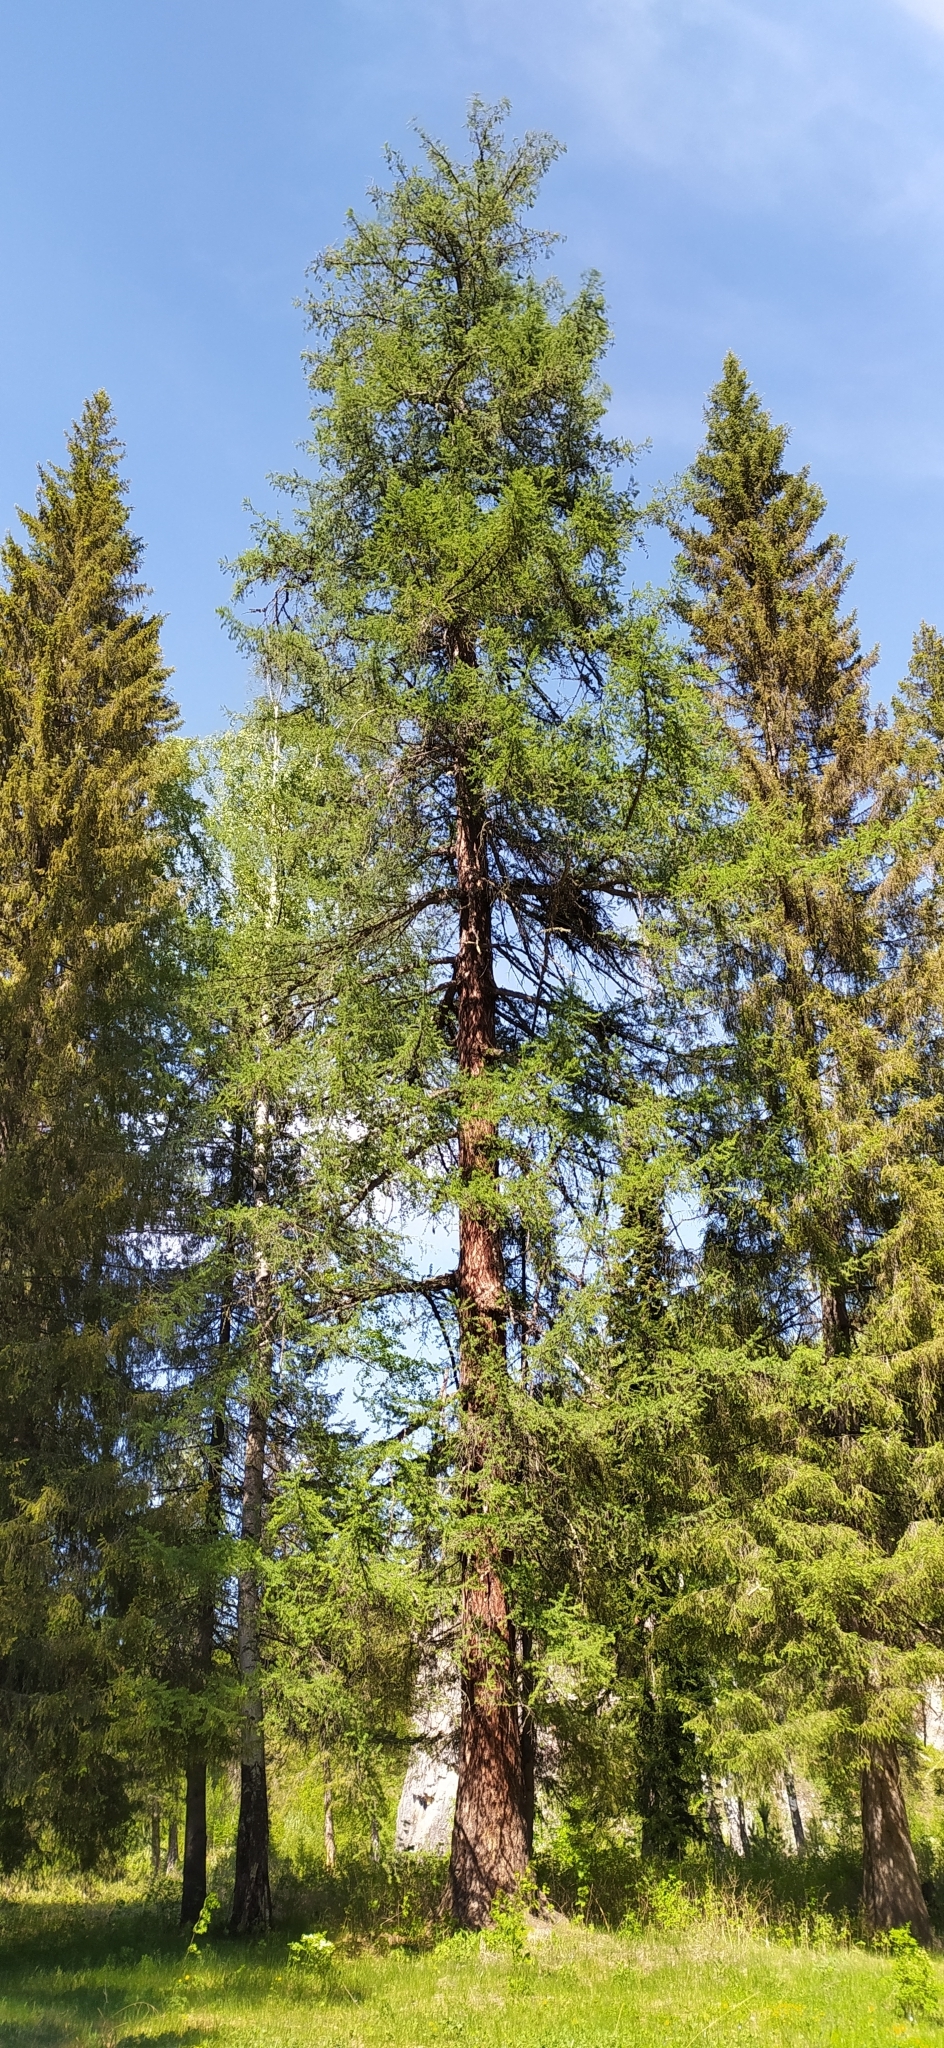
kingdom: Plantae
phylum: Tracheophyta
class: Pinopsida
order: Pinales
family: Pinaceae
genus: Larix
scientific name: Larix sibirica
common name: Siberian larch
